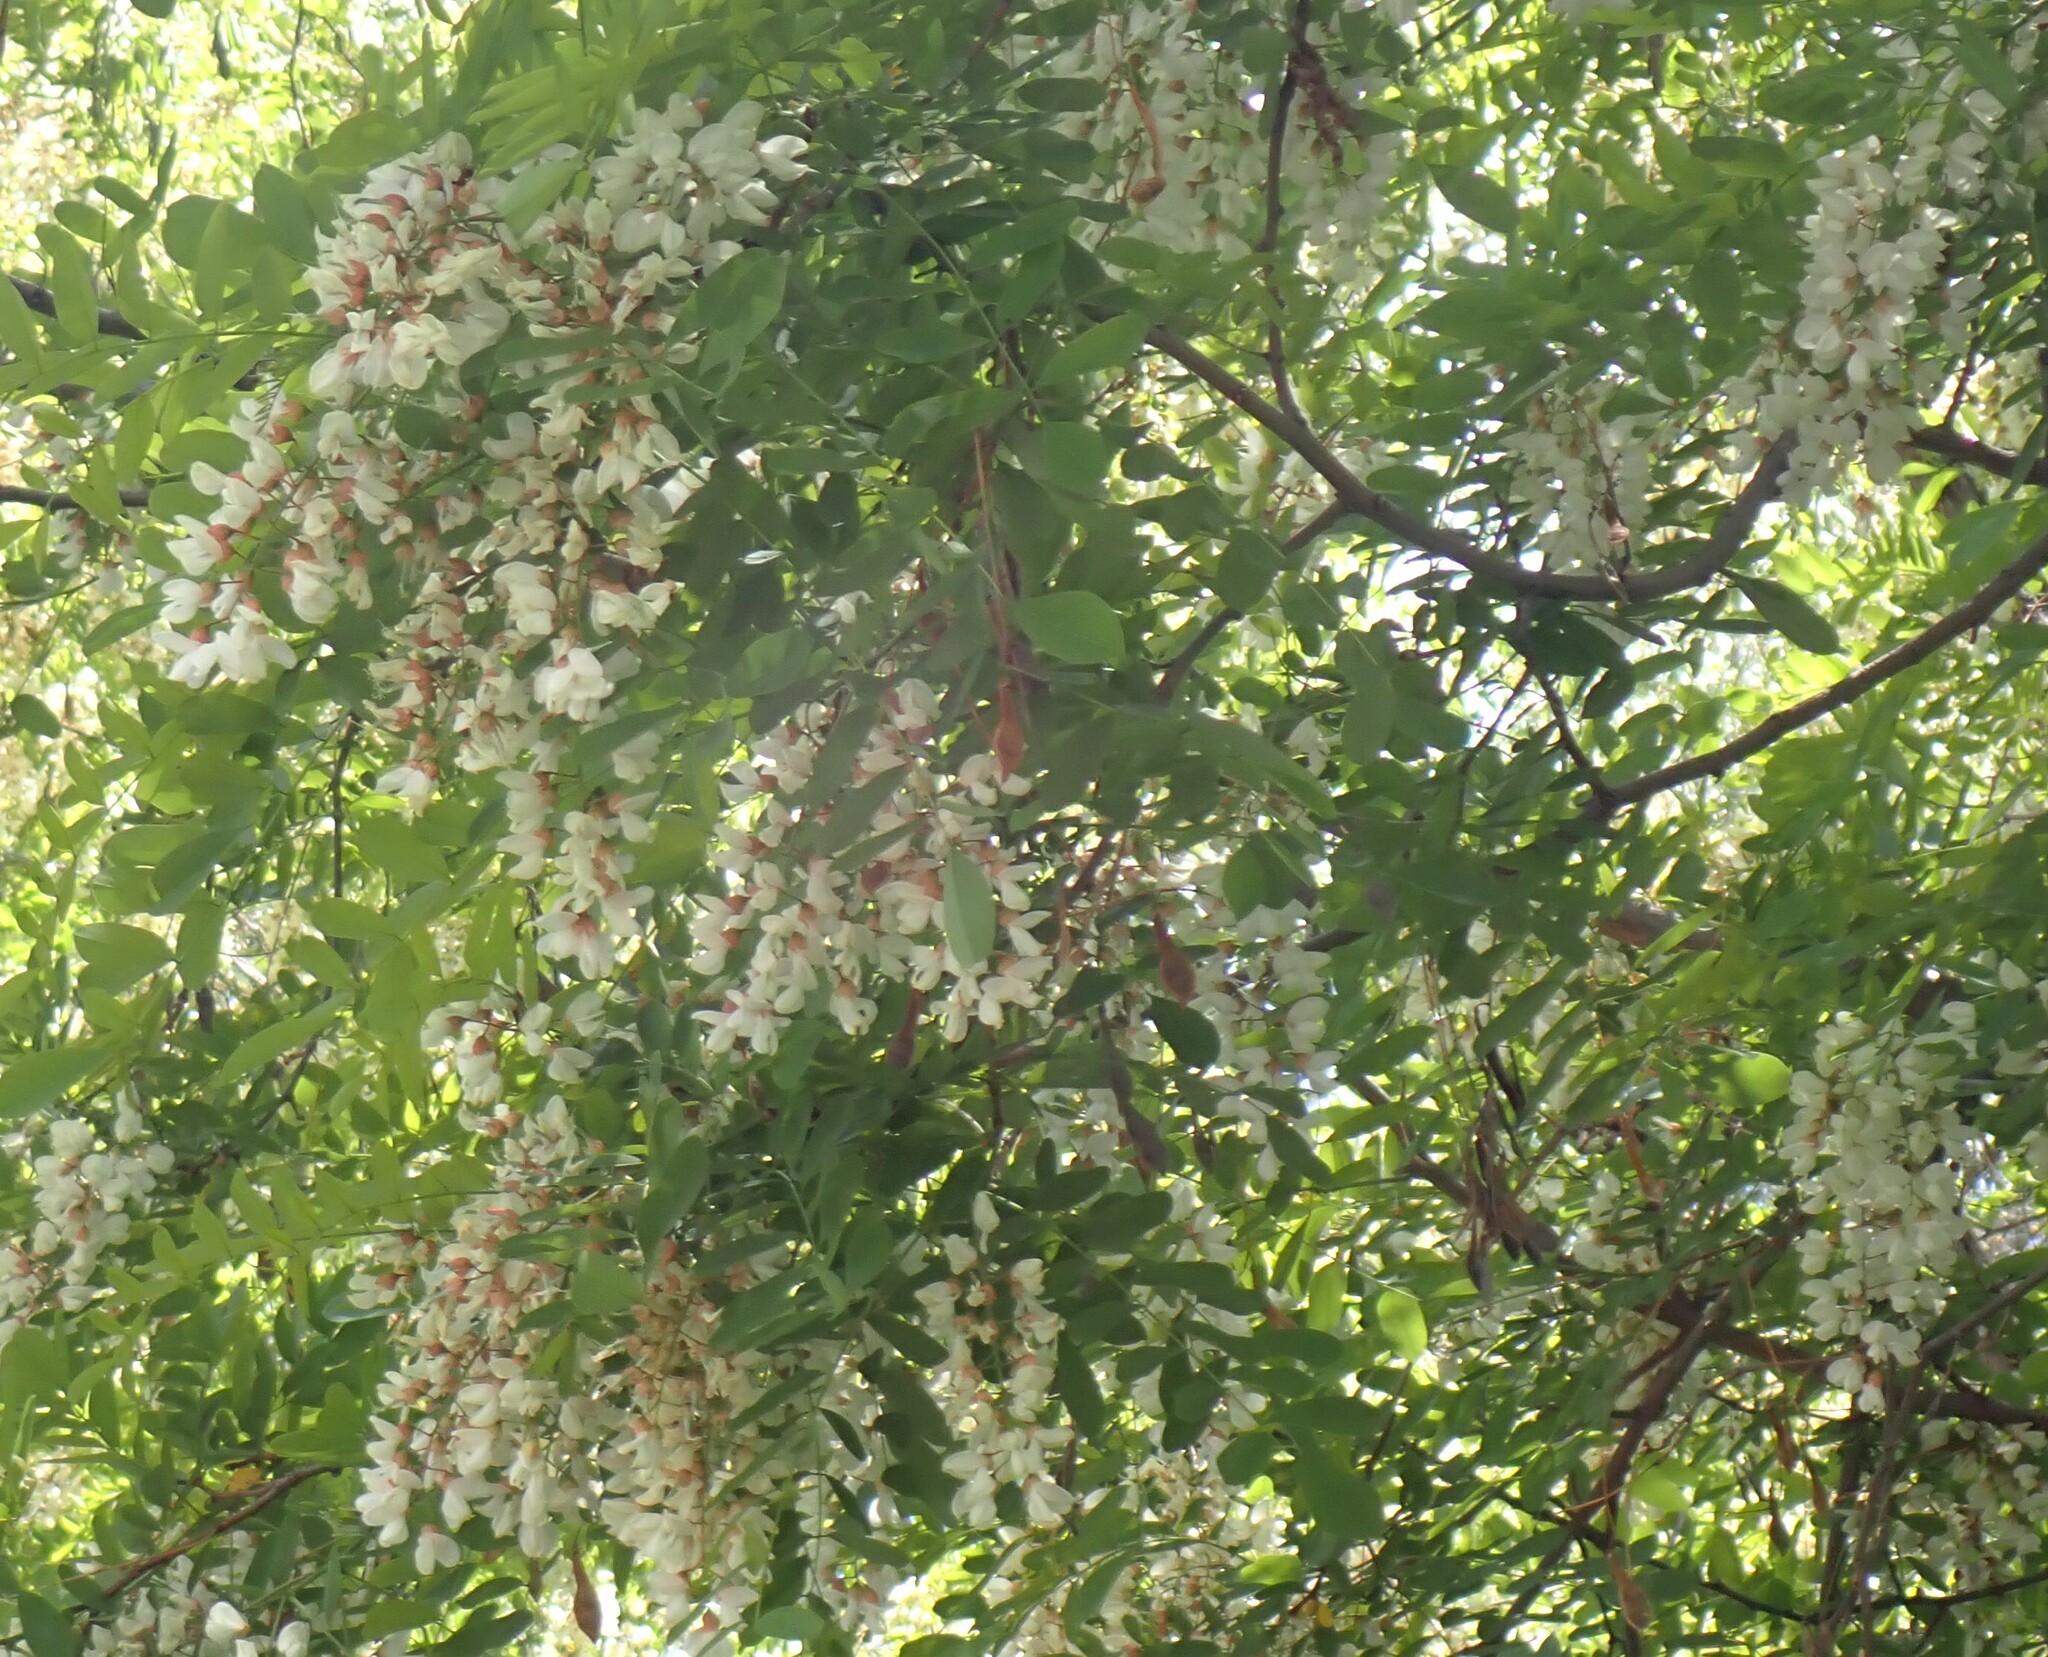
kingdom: Plantae
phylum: Tracheophyta
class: Magnoliopsida
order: Fabales
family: Fabaceae
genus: Robinia
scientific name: Robinia pseudoacacia
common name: Black locust
